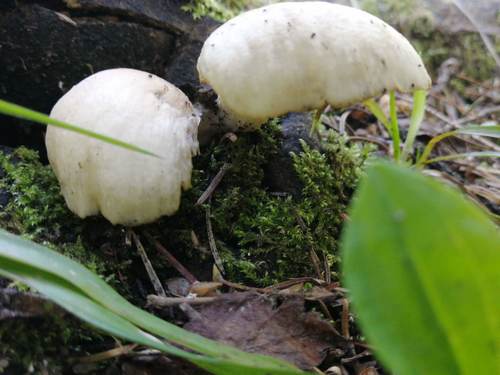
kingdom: Fungi
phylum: Basidiomycota
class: Agaricomycetes
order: Agaricales
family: Pleurotaceae
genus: Pleurotus
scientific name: Pleurotus pulmonarius
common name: Pale oyster
